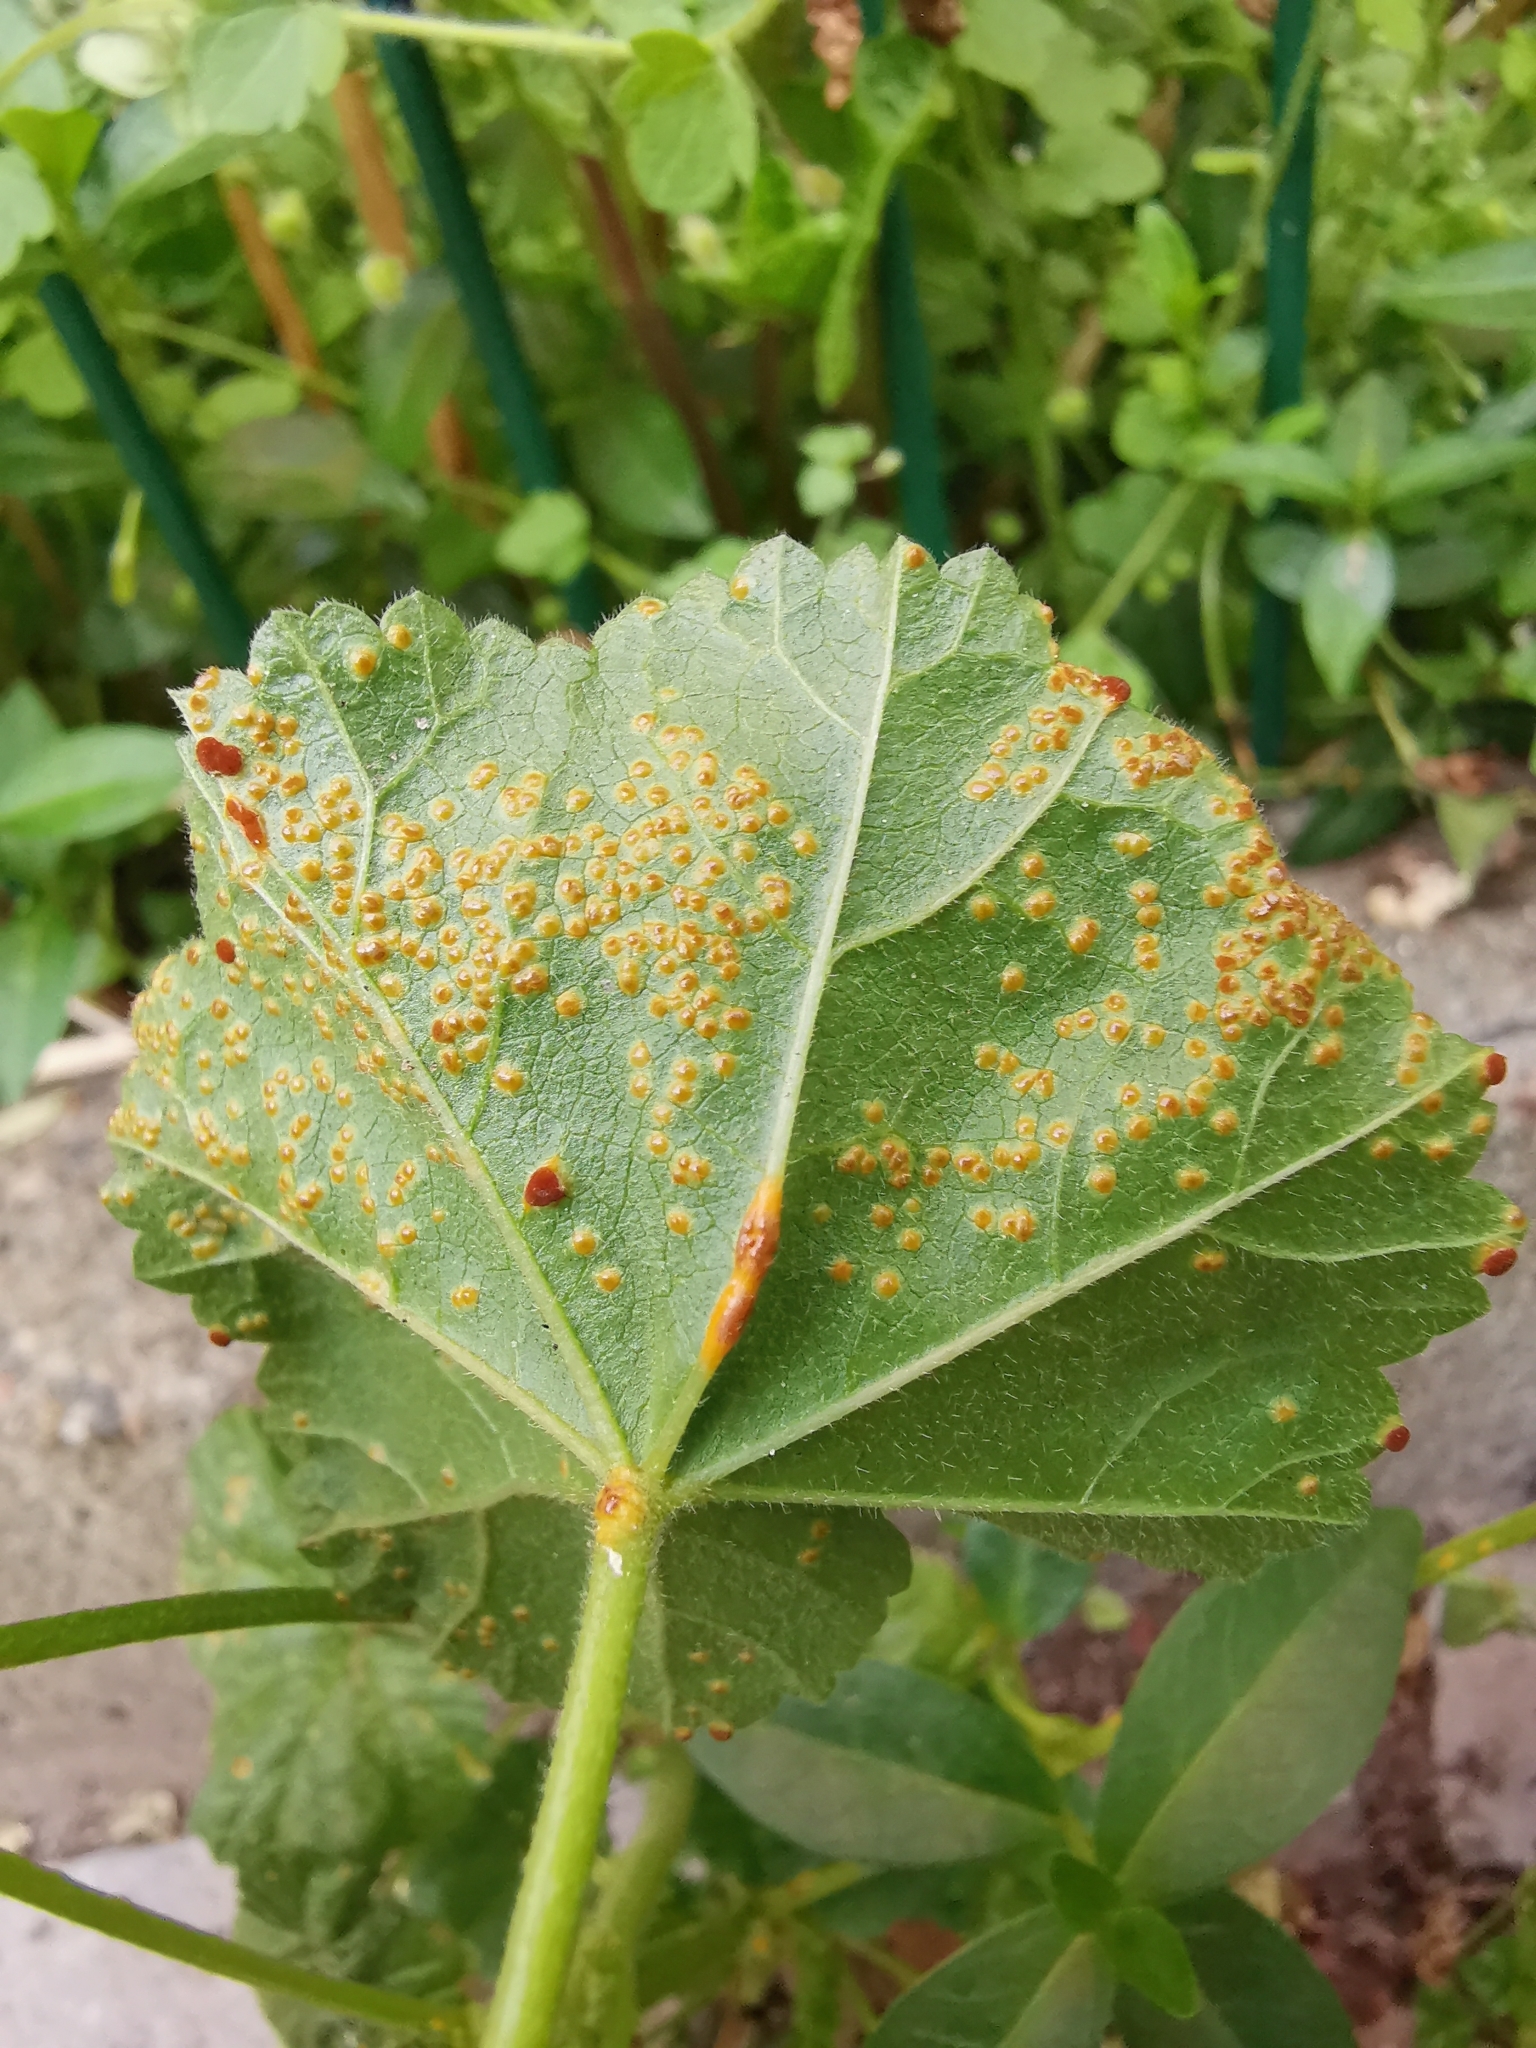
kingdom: Fungi
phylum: Basidiomycota
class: Pucciniomycetes
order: Pucciniales
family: Pucciniaceae
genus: Puccinia
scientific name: Puccinia malvacearum
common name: Hollyhock rust
